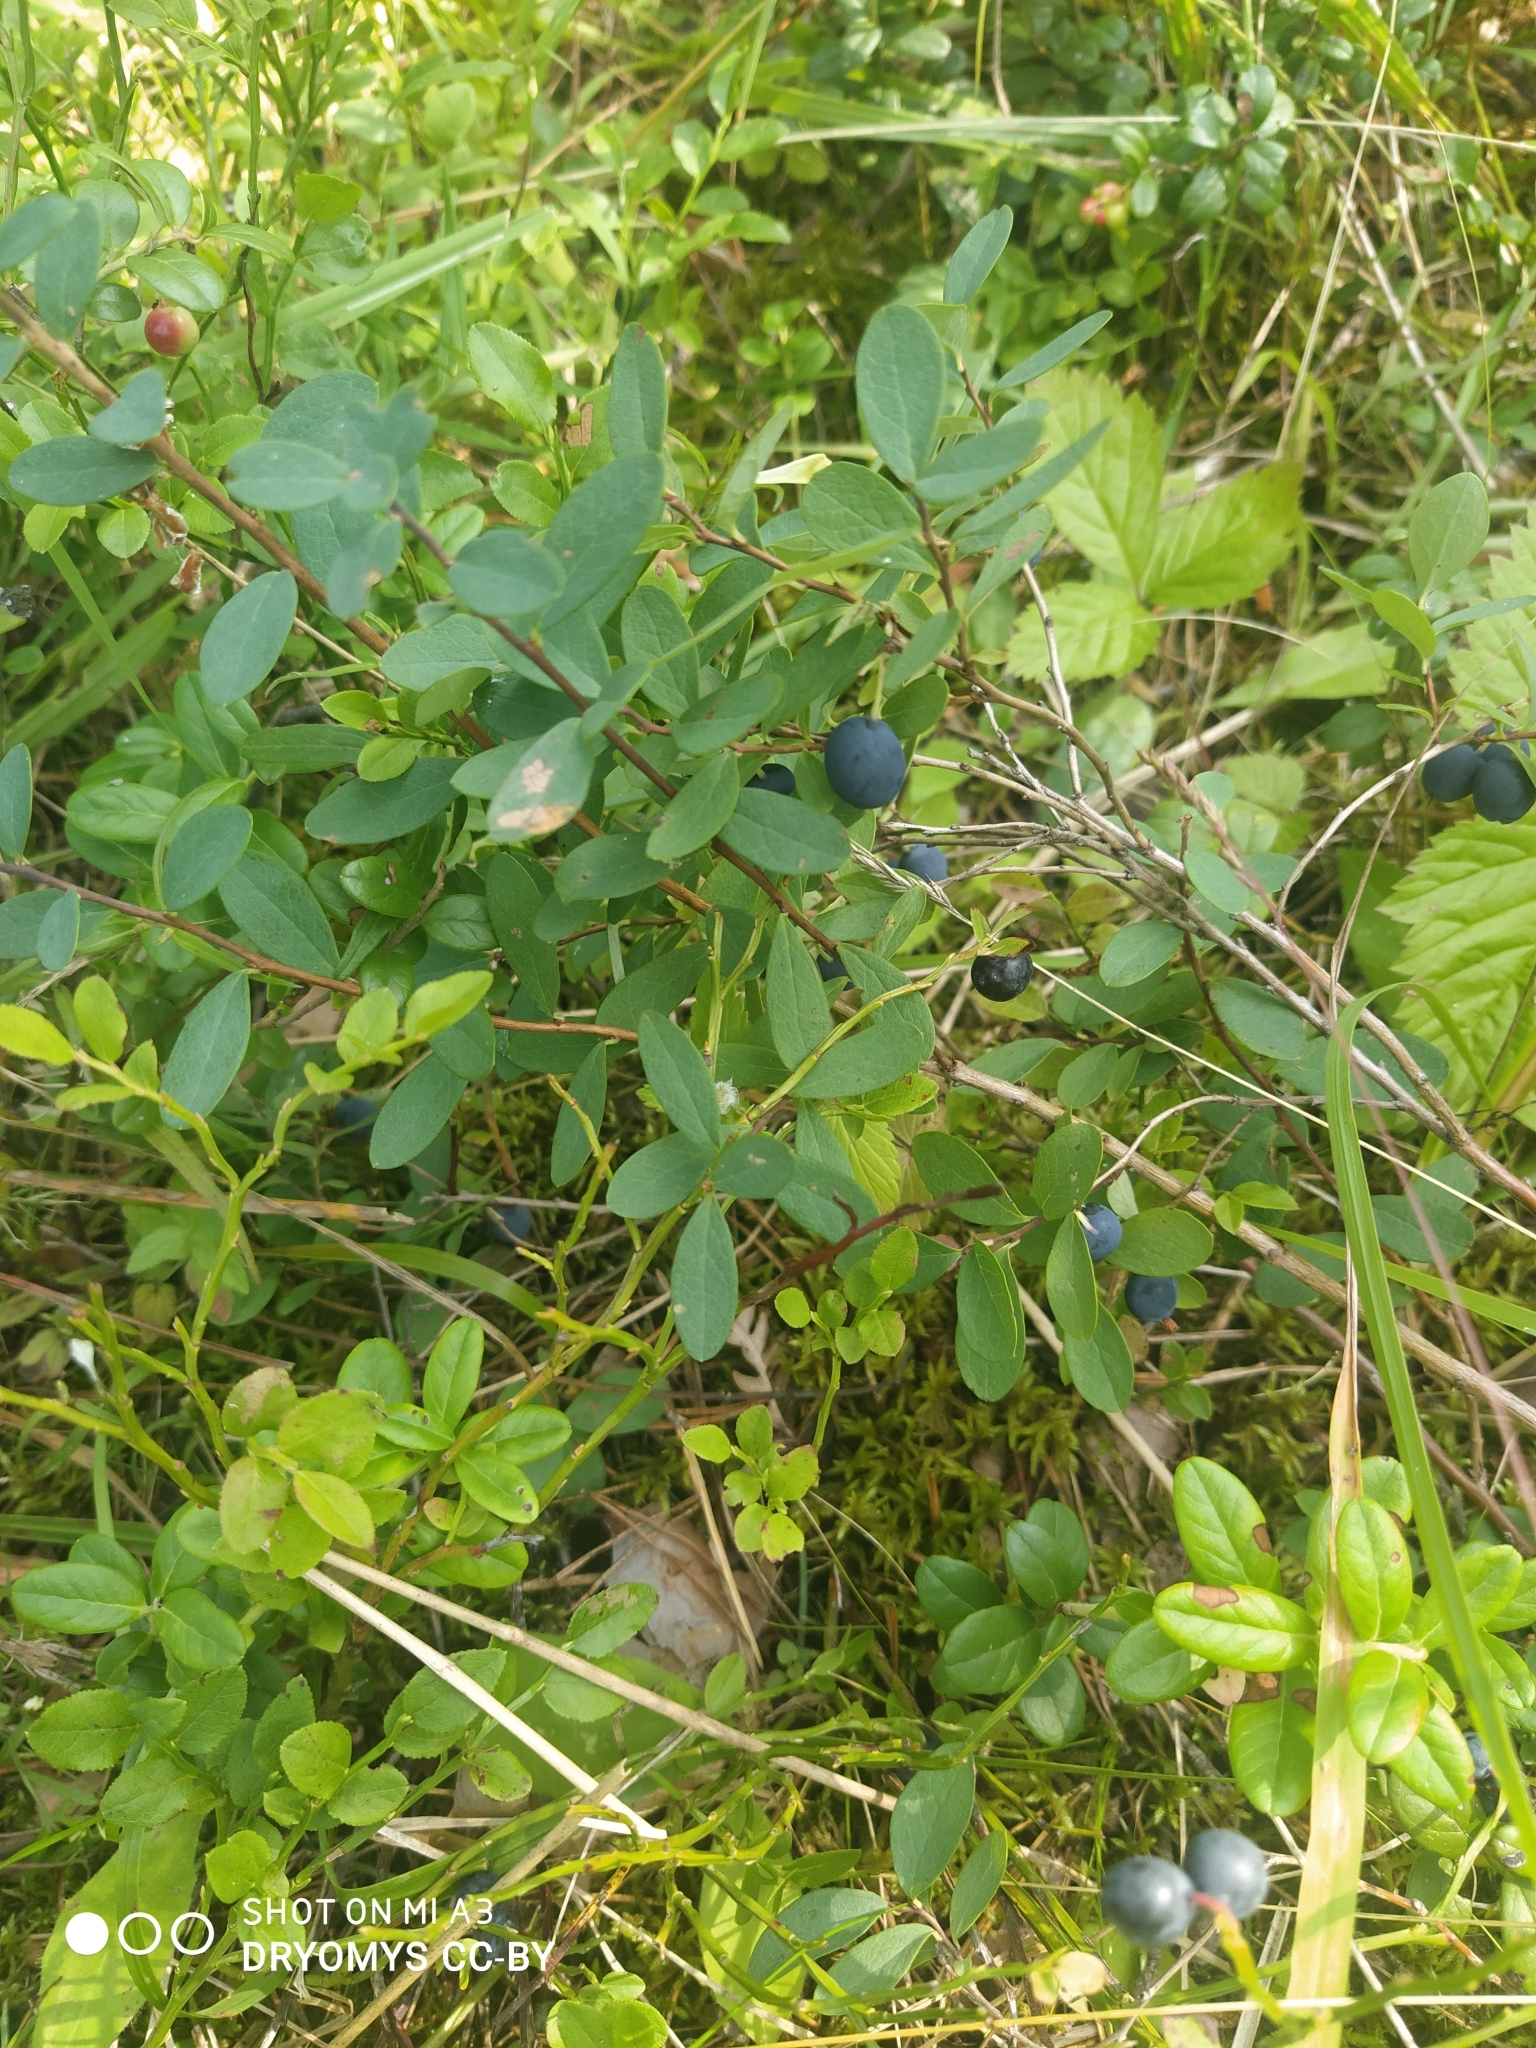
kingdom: Plantae
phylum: Tracheophyta
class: Magnoliopsida
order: Ericales
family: Ericaceae
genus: Vaccinium
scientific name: Vaccinium uliginosum
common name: Bog bilberry
